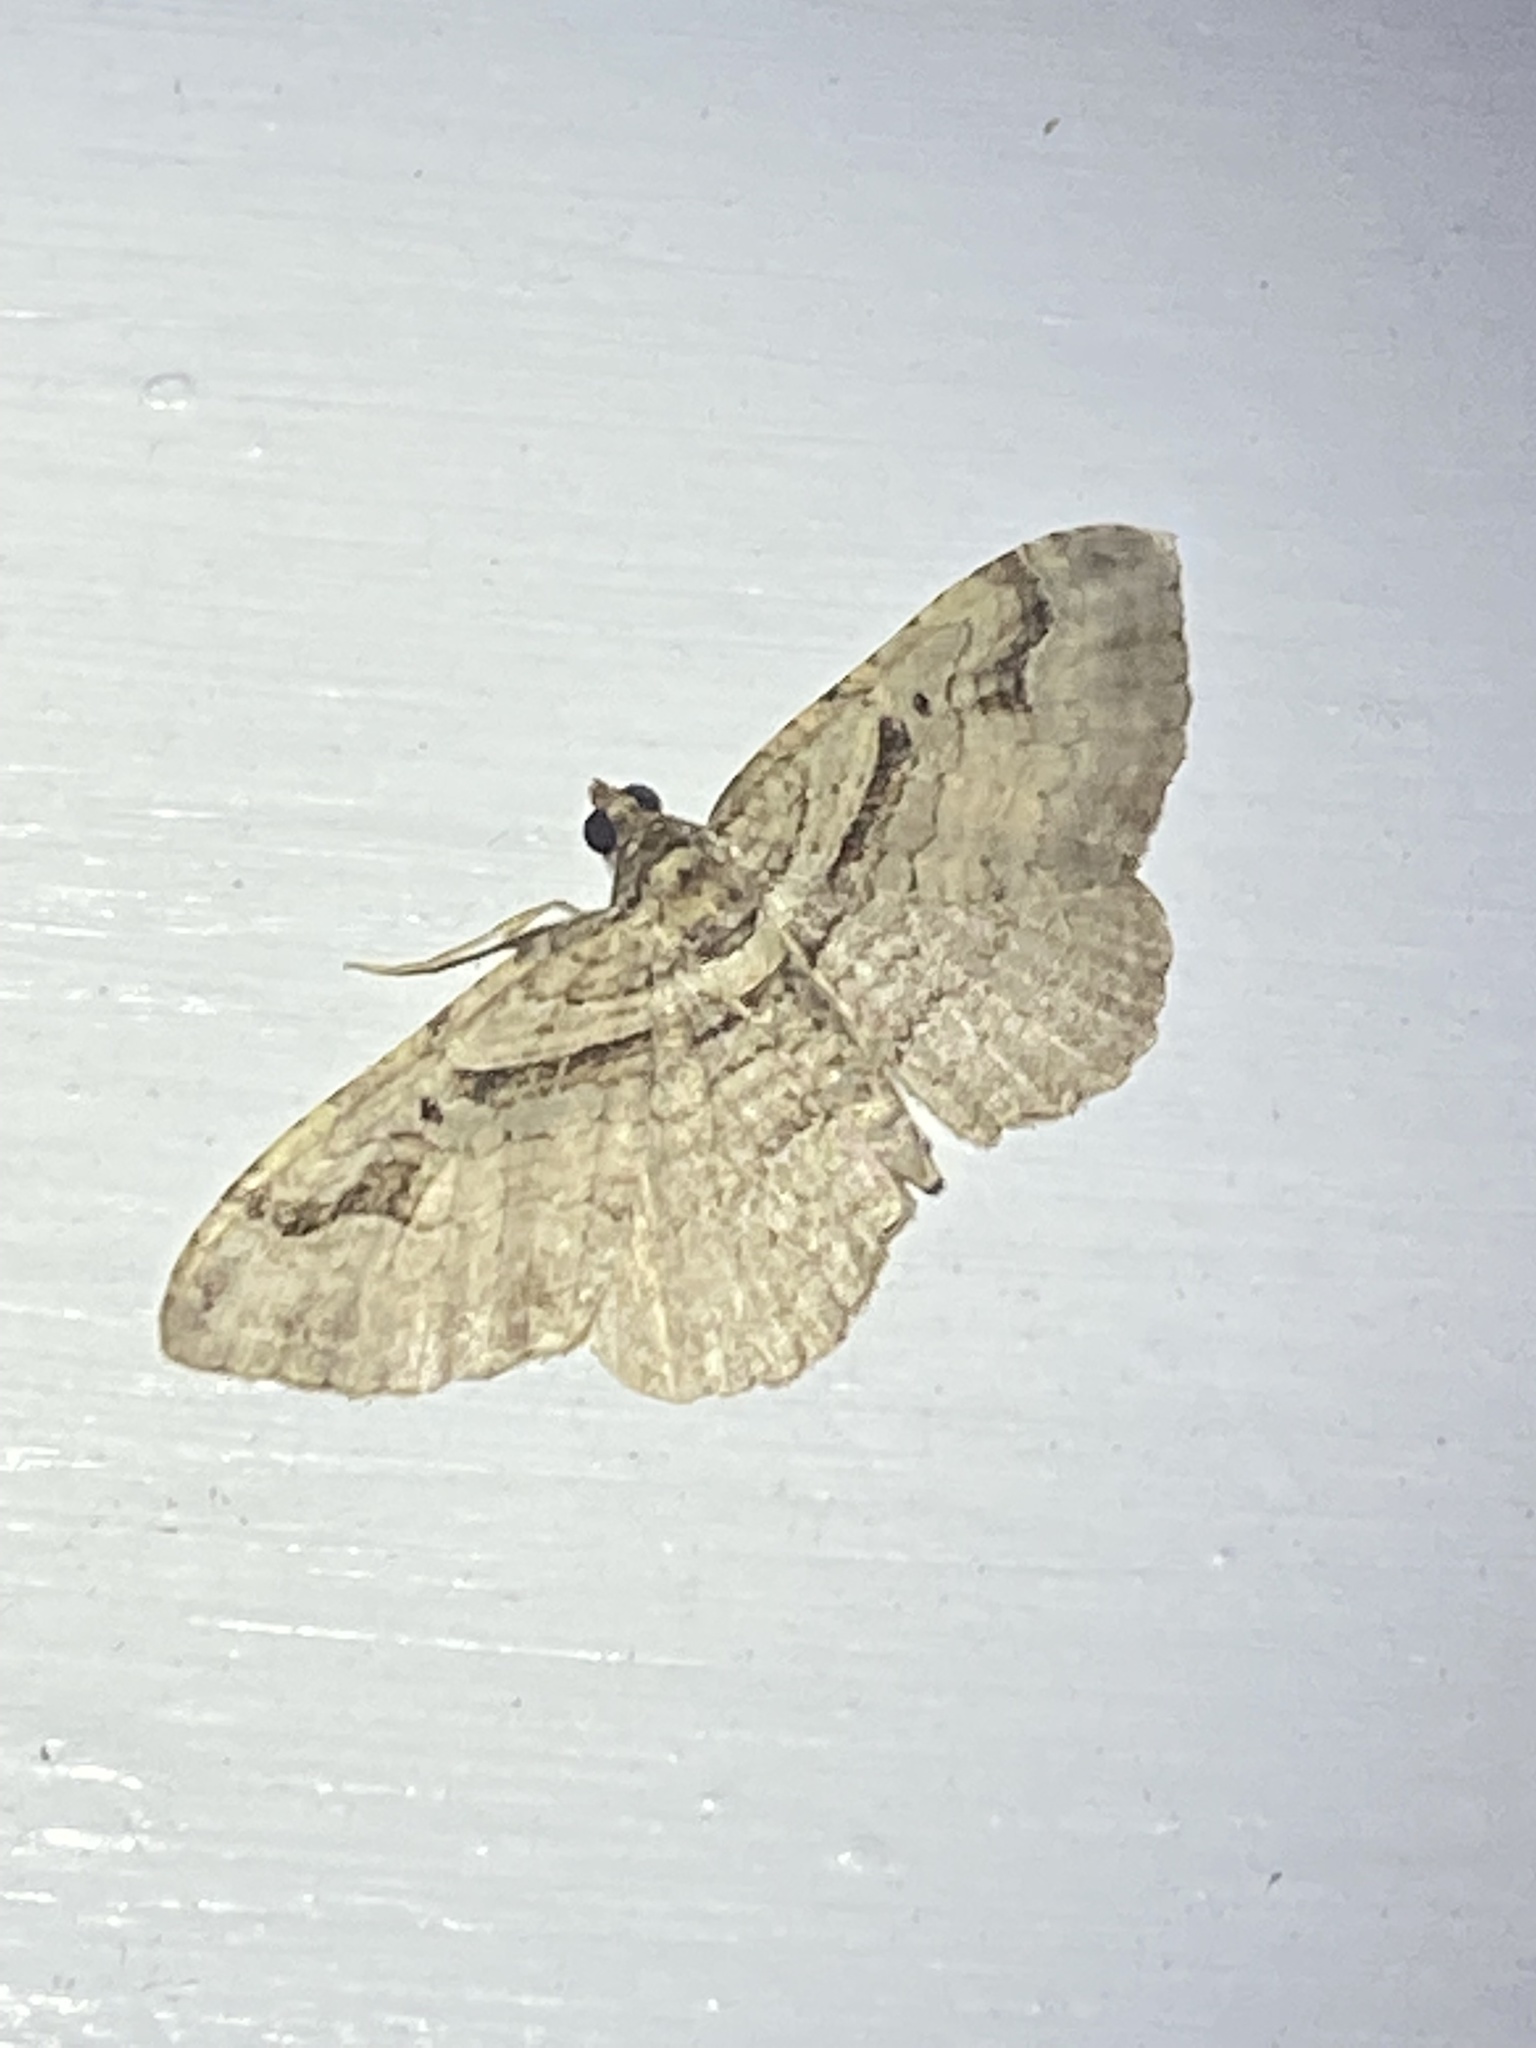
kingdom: Animalia
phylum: Arthropoda
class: Insecta
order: Lepidoptera
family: Geometridae
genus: Costaconvexa
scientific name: Costaconvexa centrostrigaria
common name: Bent-line carpet
